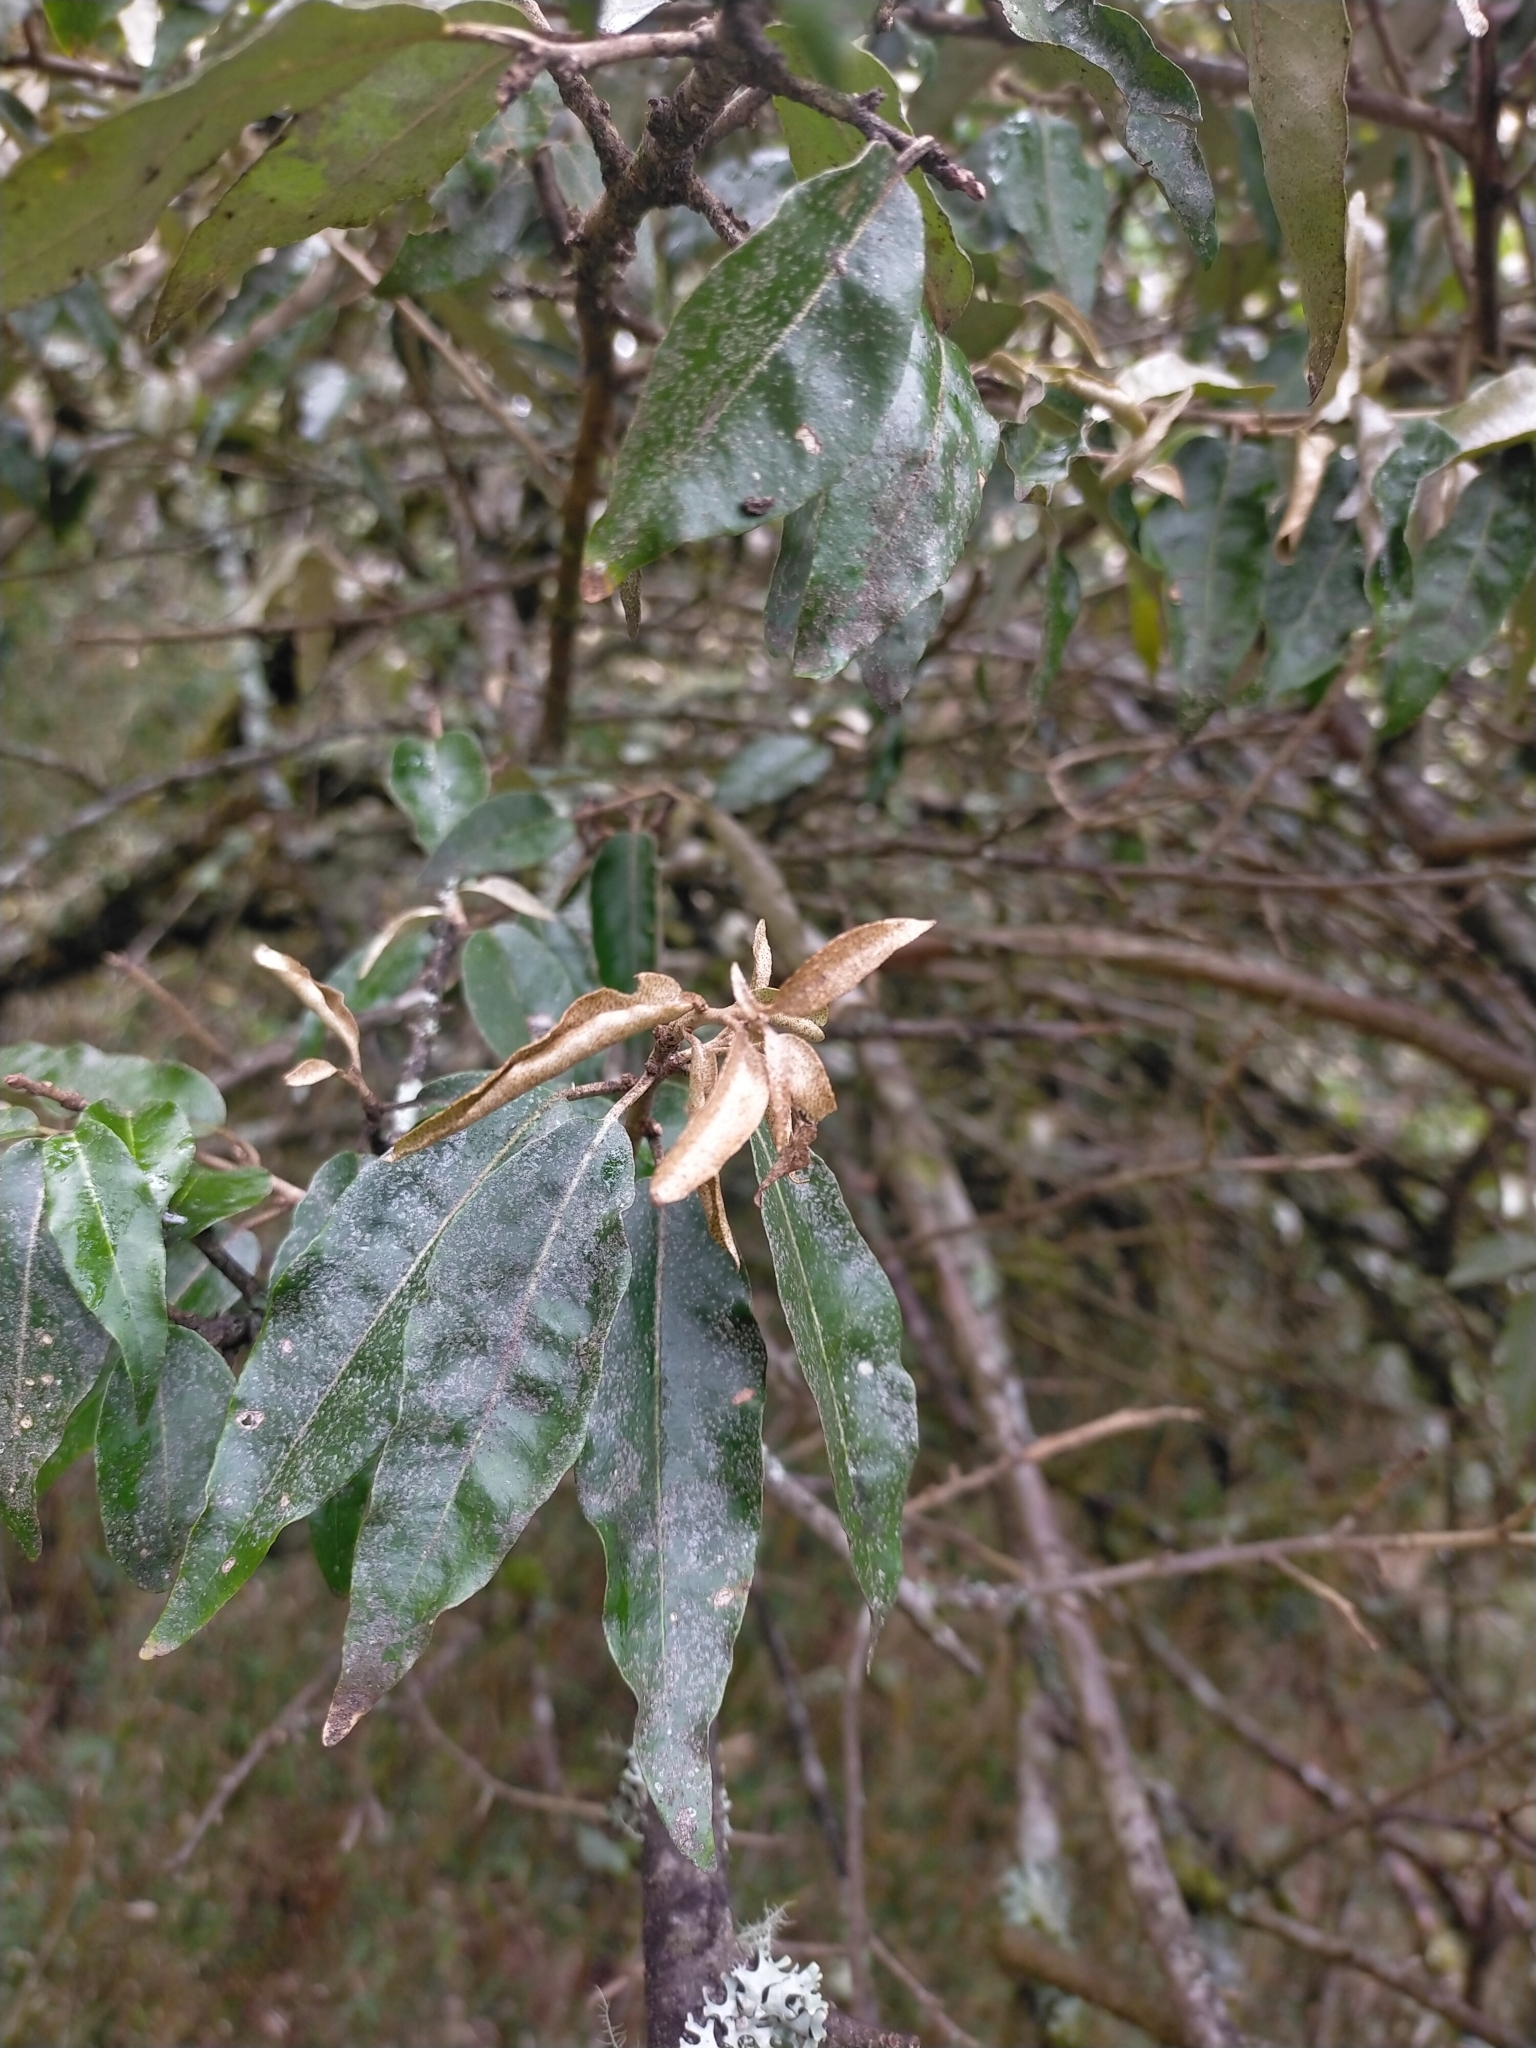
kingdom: Plantae
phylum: Tracheophyta
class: Magnoliopsida
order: Rosales
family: Elaeagnaceae
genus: Elaeagnus
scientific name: Elaeagnus thunbergii
